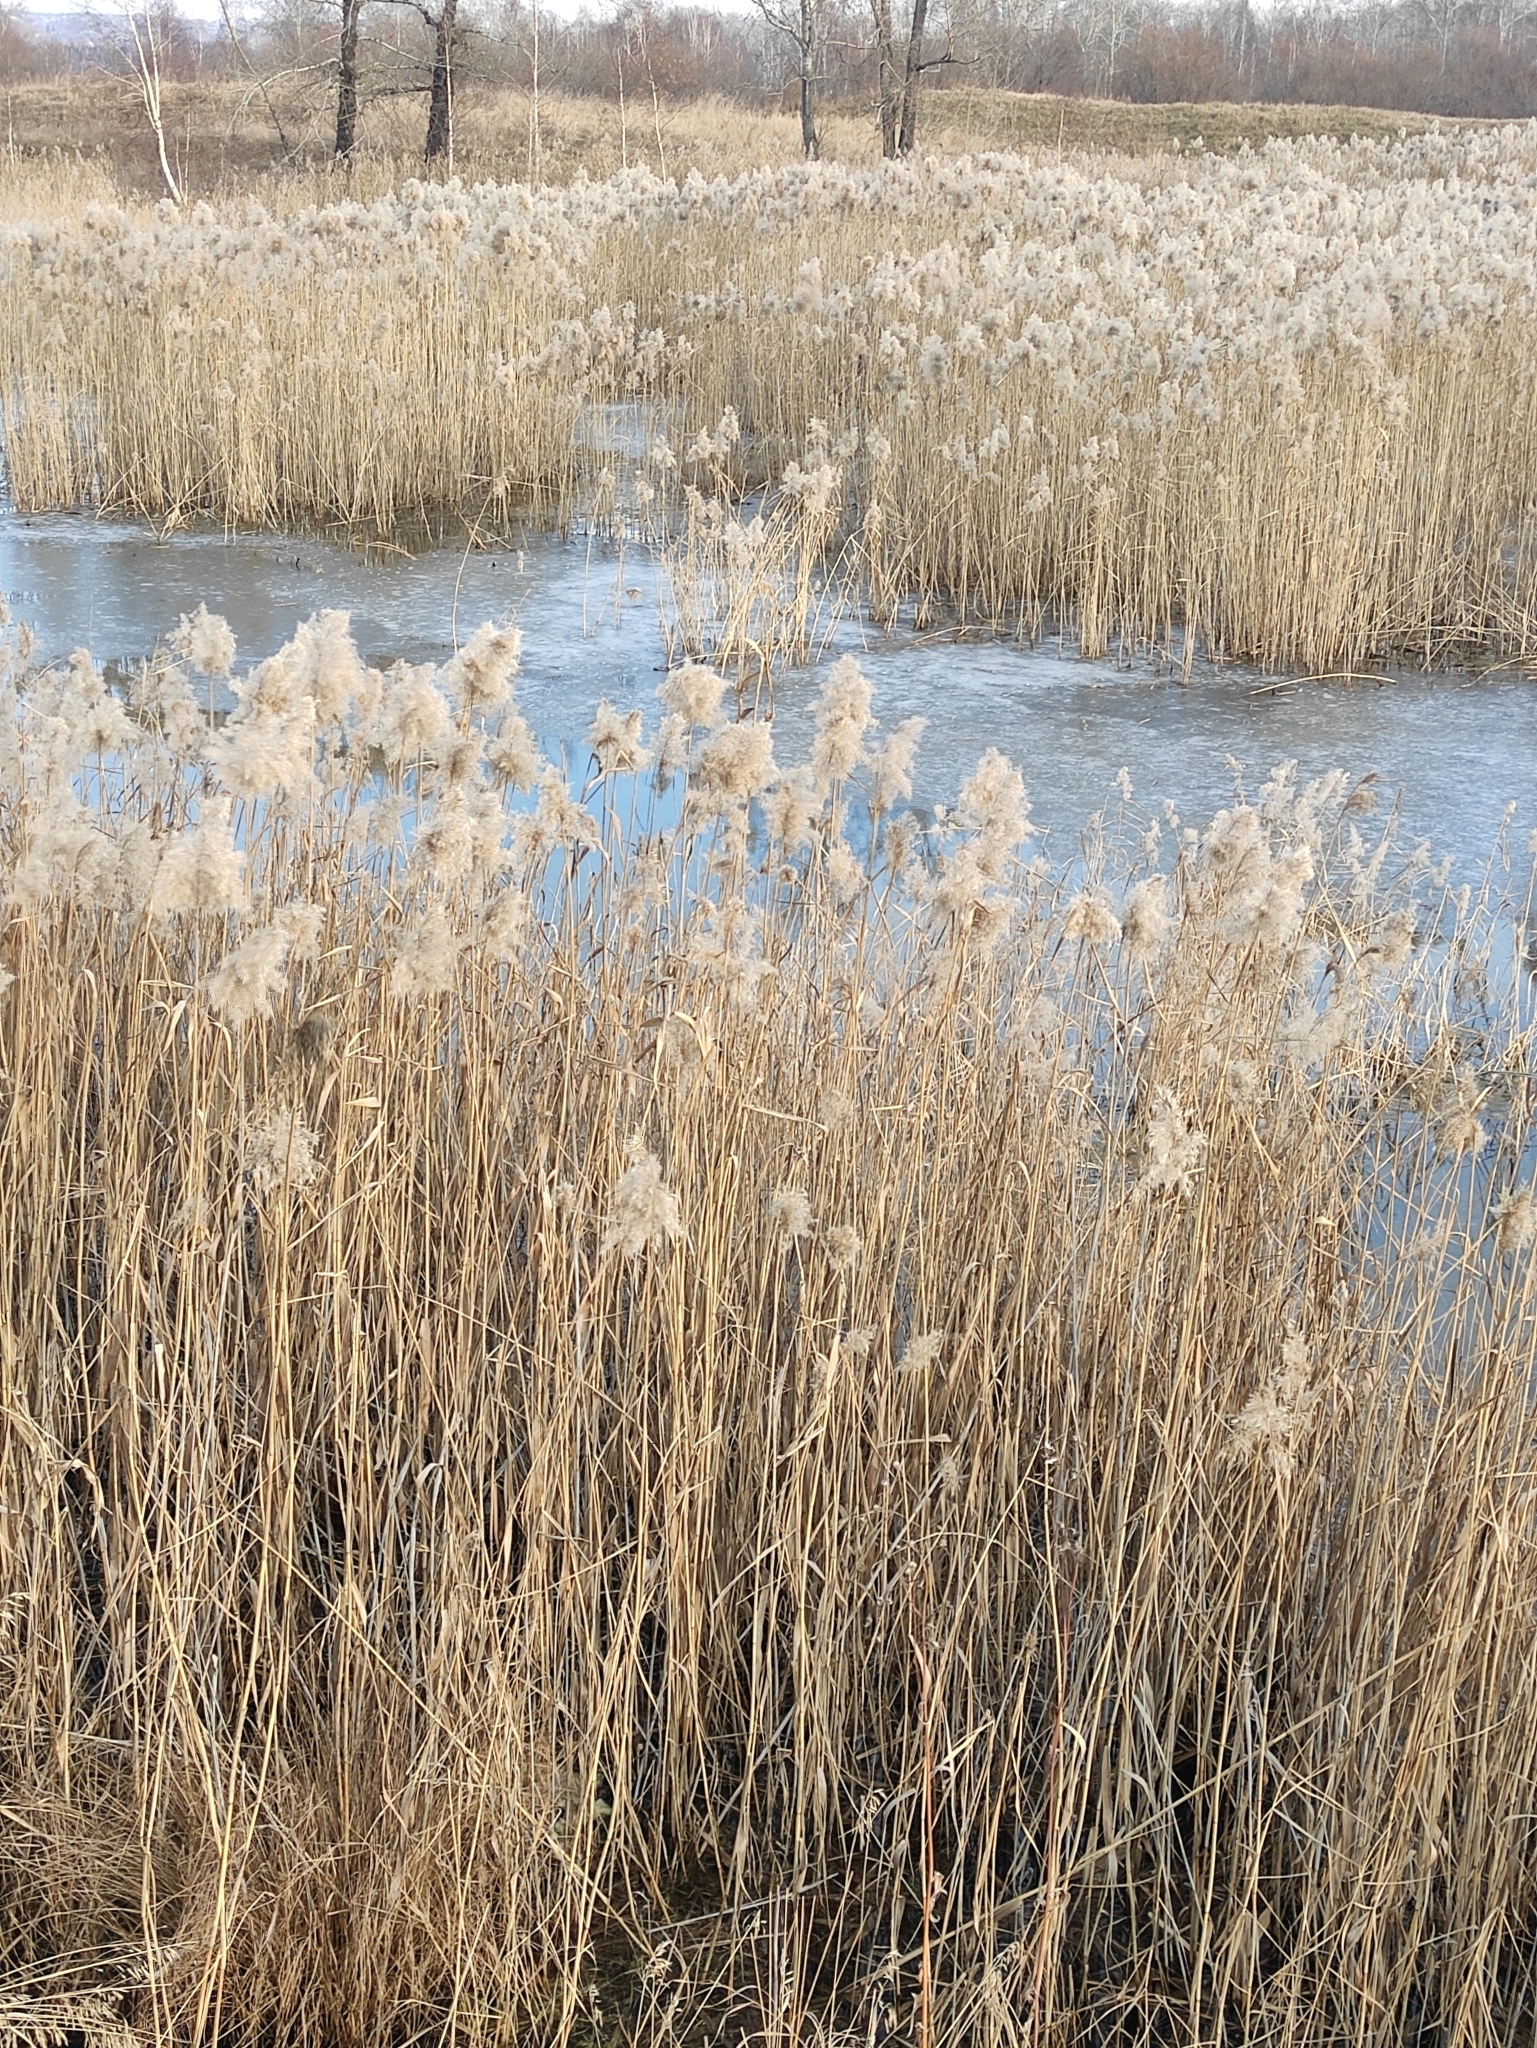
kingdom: Plantae
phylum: Tracheophyta
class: Liliopsida
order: Poales
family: Poaceae
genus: Phragmites
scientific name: Phragmites australis
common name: Common reed
